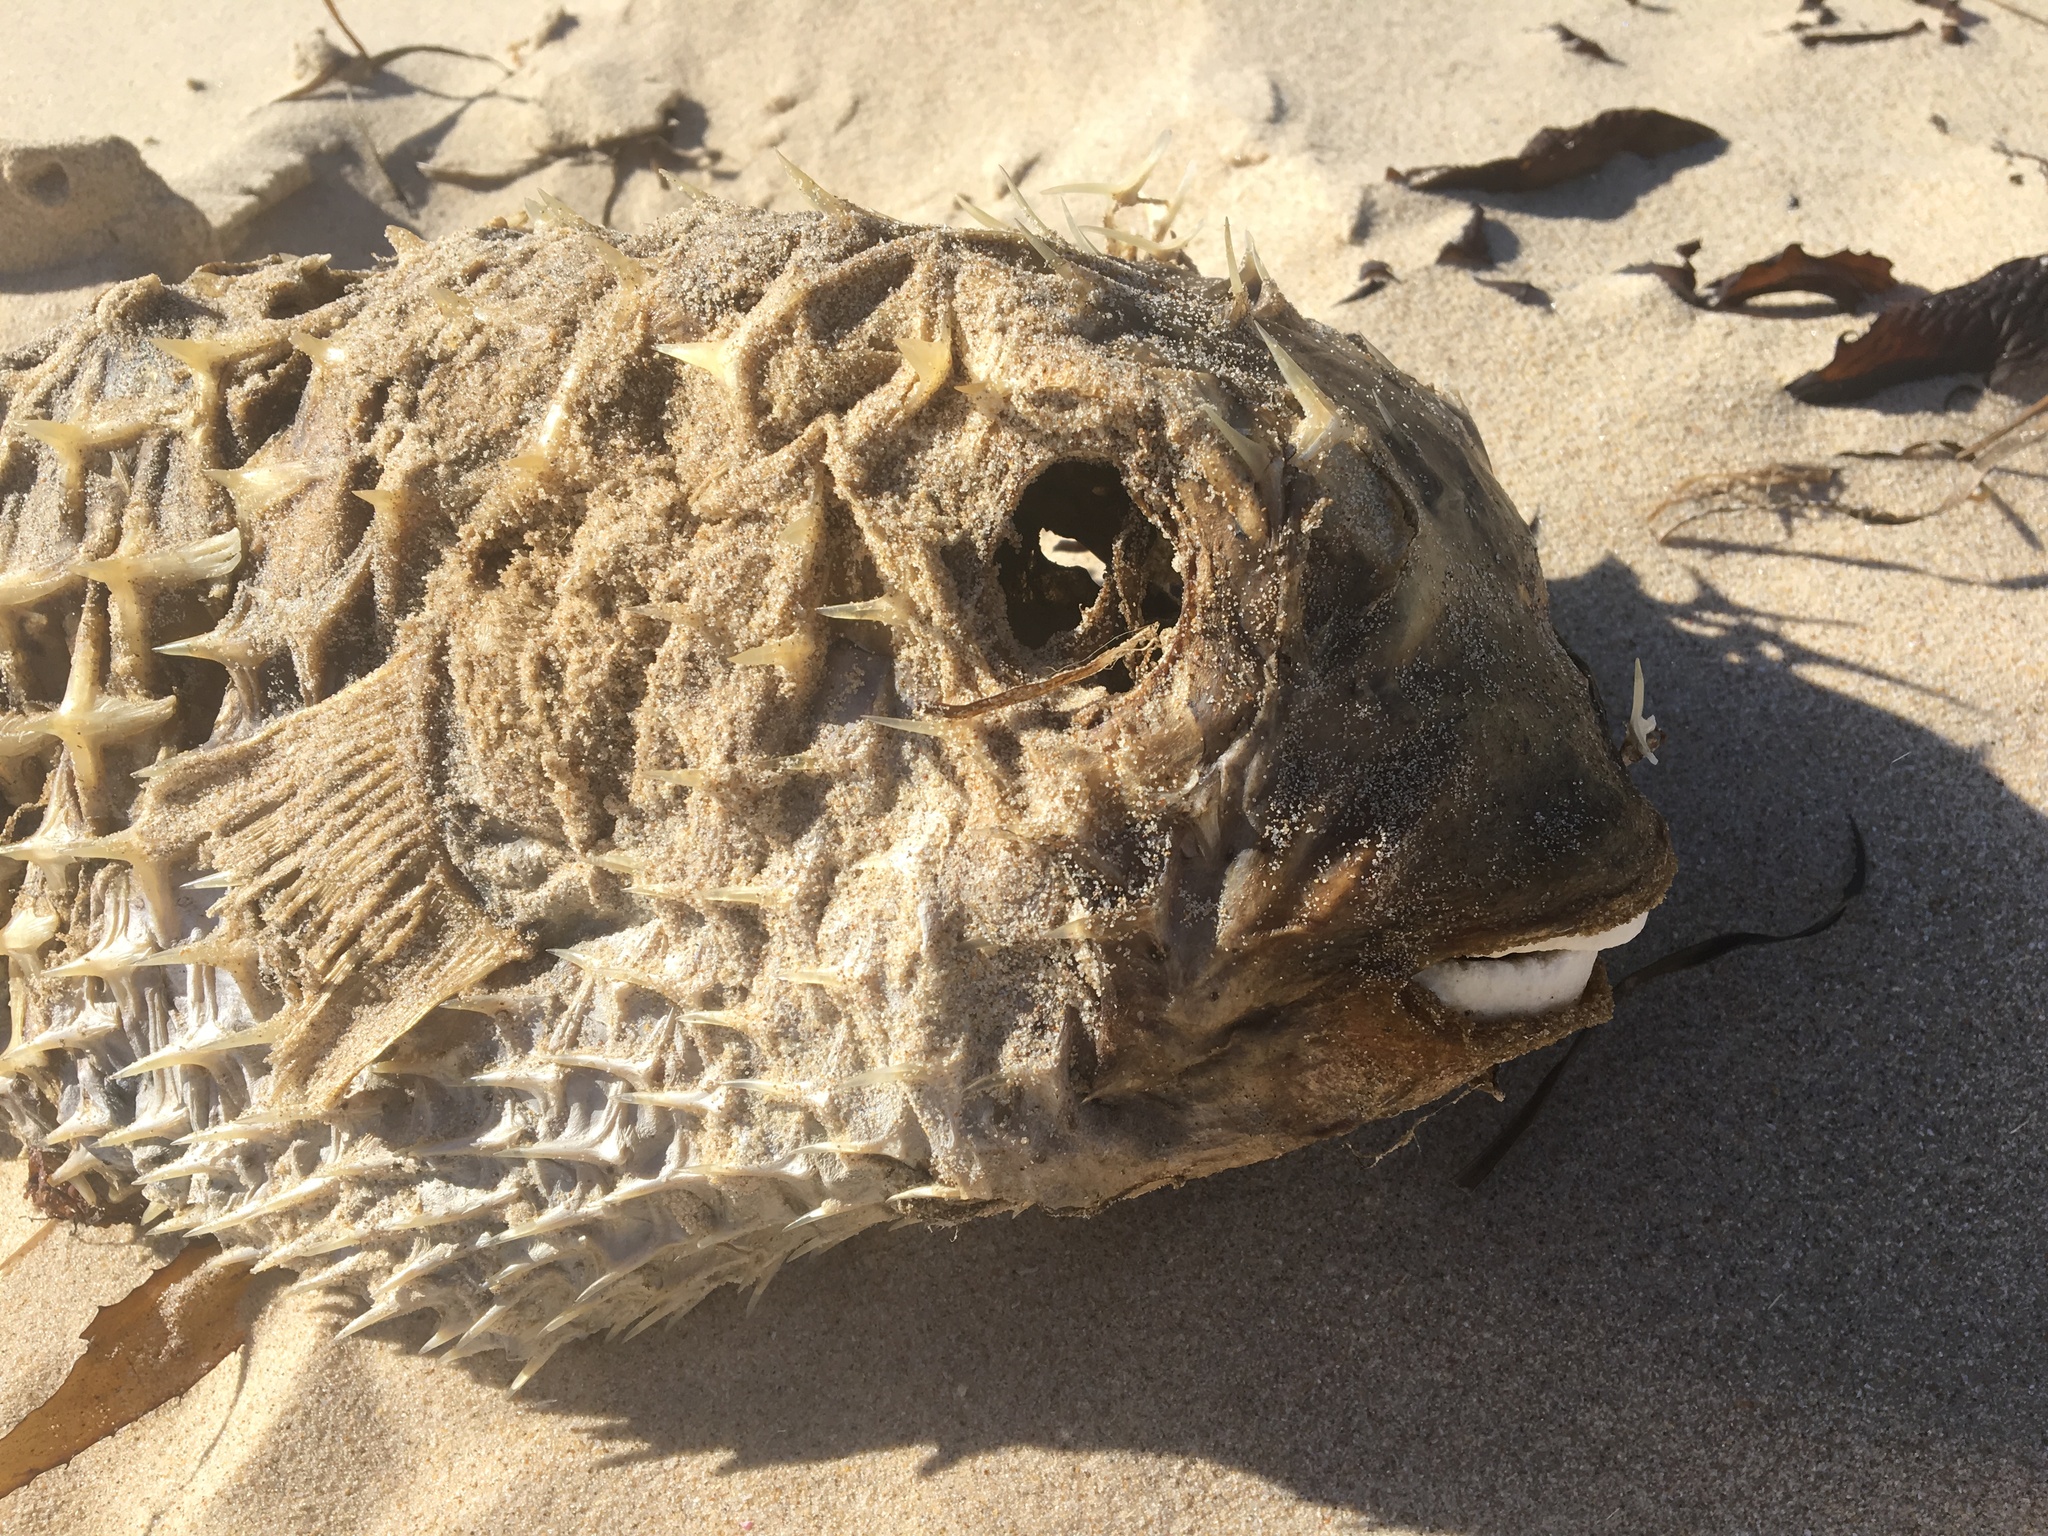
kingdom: Animalia
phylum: Chordata
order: Tetraodontiformes
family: Diodontidae
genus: Dicotylichthys
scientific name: Dicotylichthys punctulatus
